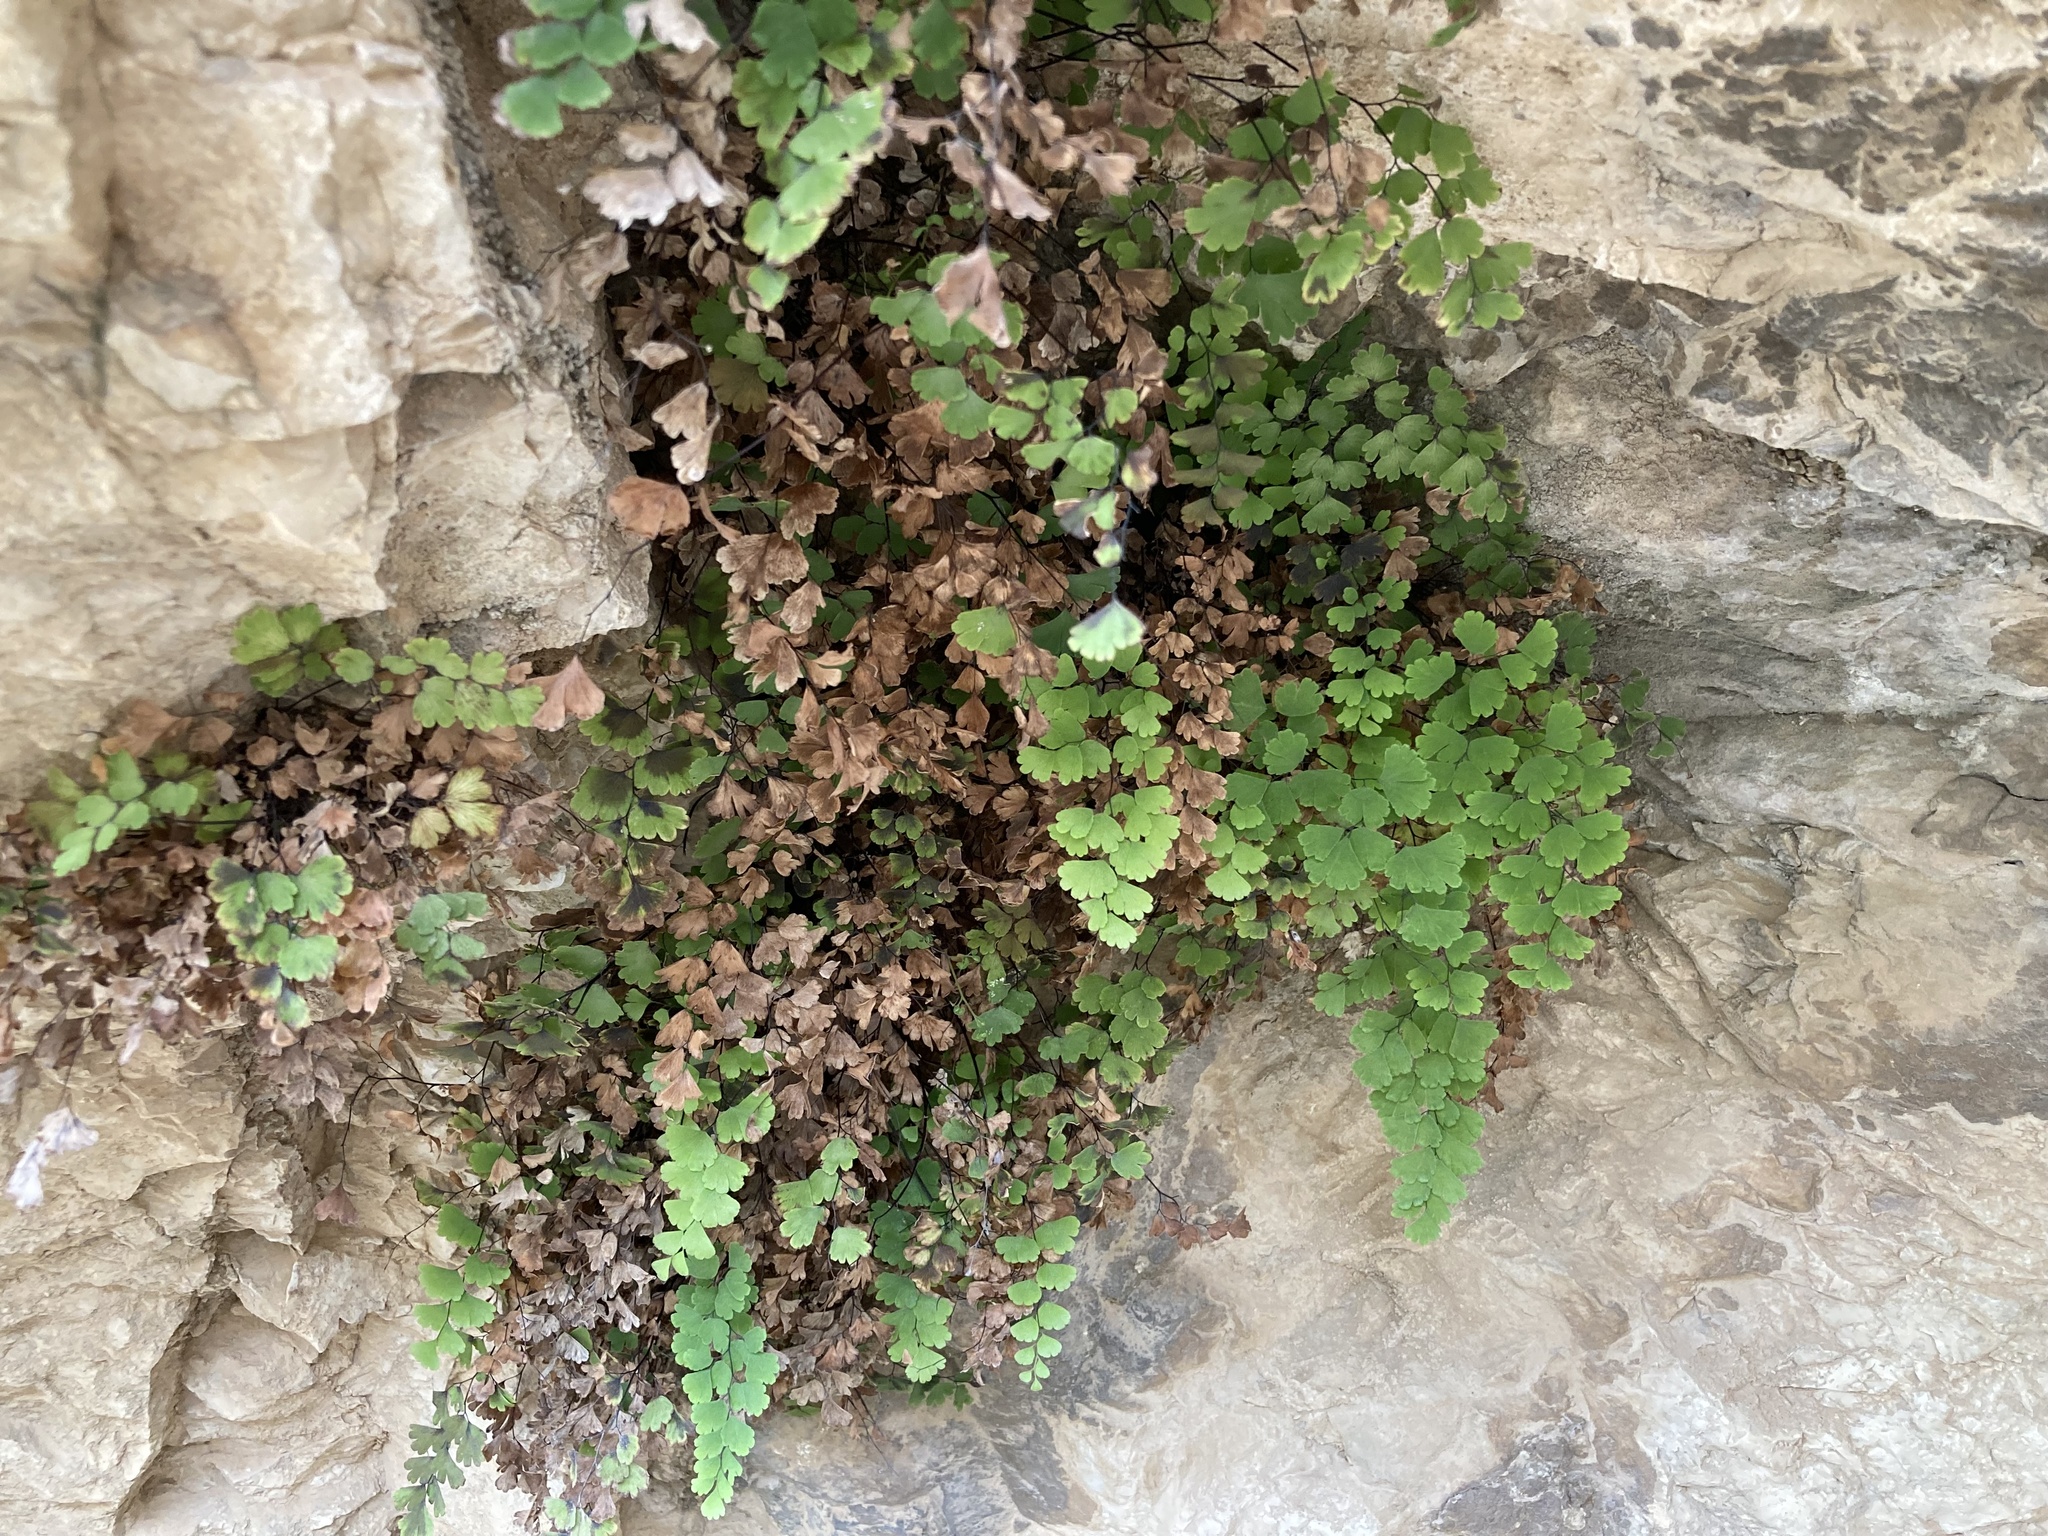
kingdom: Plantae
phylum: Tracheophyta
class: Polypodiopsida
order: Polypodiales
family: Pteridaceae
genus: Adiantum
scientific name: Adiantum capillus-veneris
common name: Maidenhair fern
